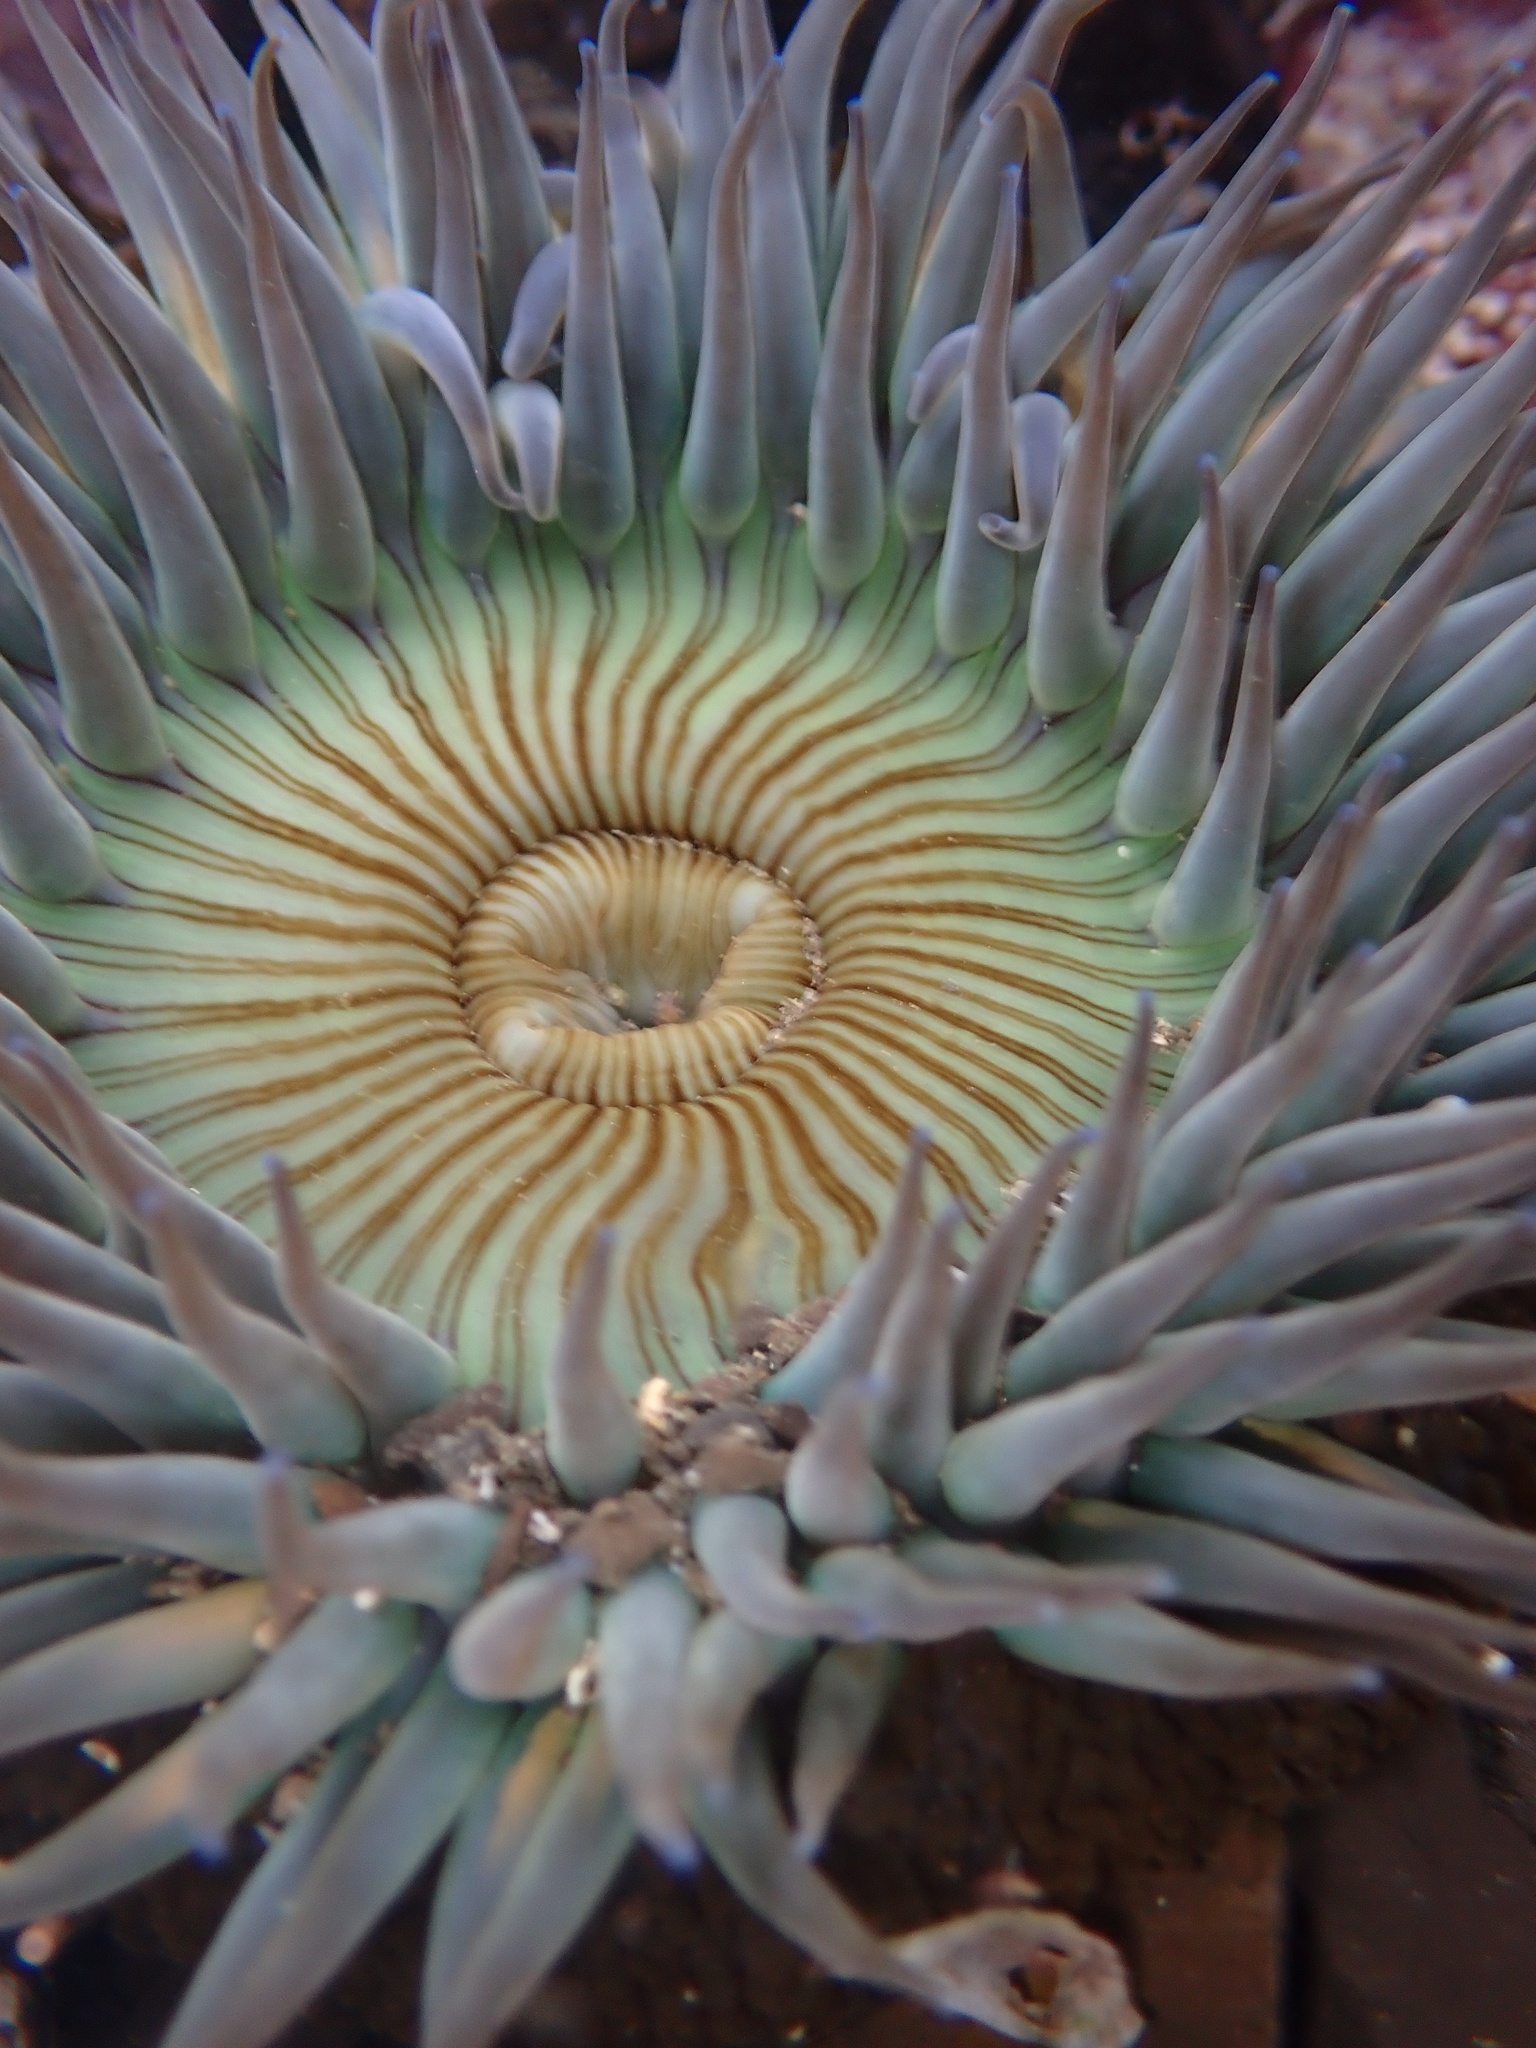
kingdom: Animalia
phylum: Cnidaria
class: Anthozoa
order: Actiniaria
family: Actiniidae
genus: Anthopleura
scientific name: Anthopleura sola
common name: Sun anemone
